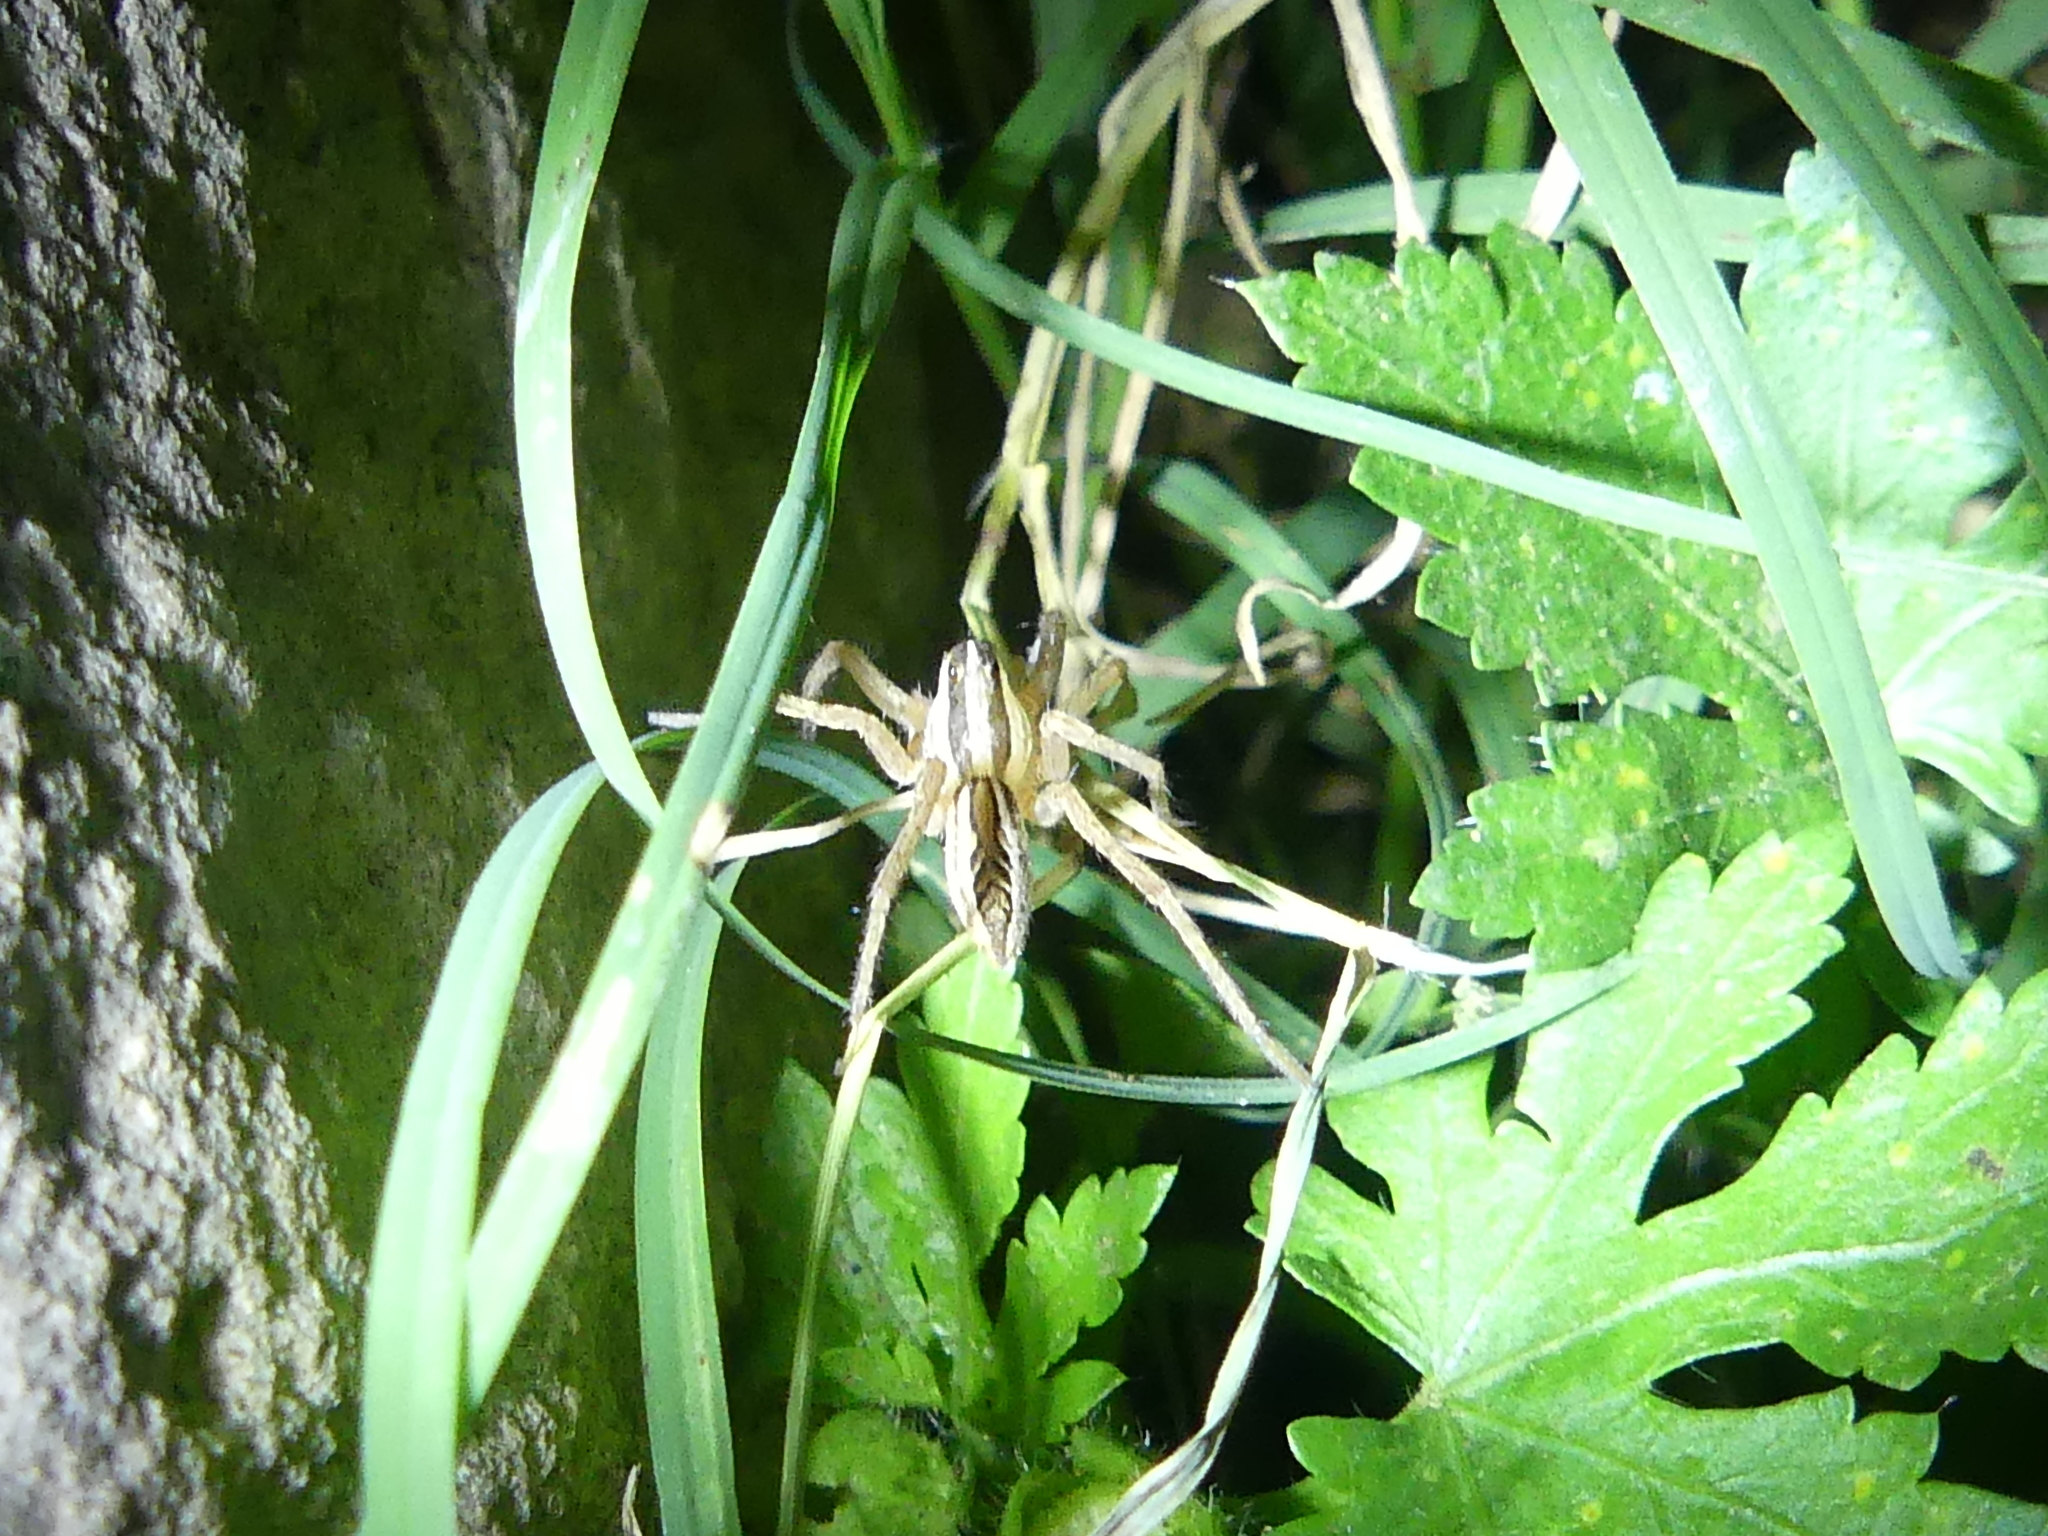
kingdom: Animalia
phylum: Arthropoda
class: Arachnida
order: Araneae
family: Lycosidae
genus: Rabidosa
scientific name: Rabidosa rabida
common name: Rabid wolf spider
